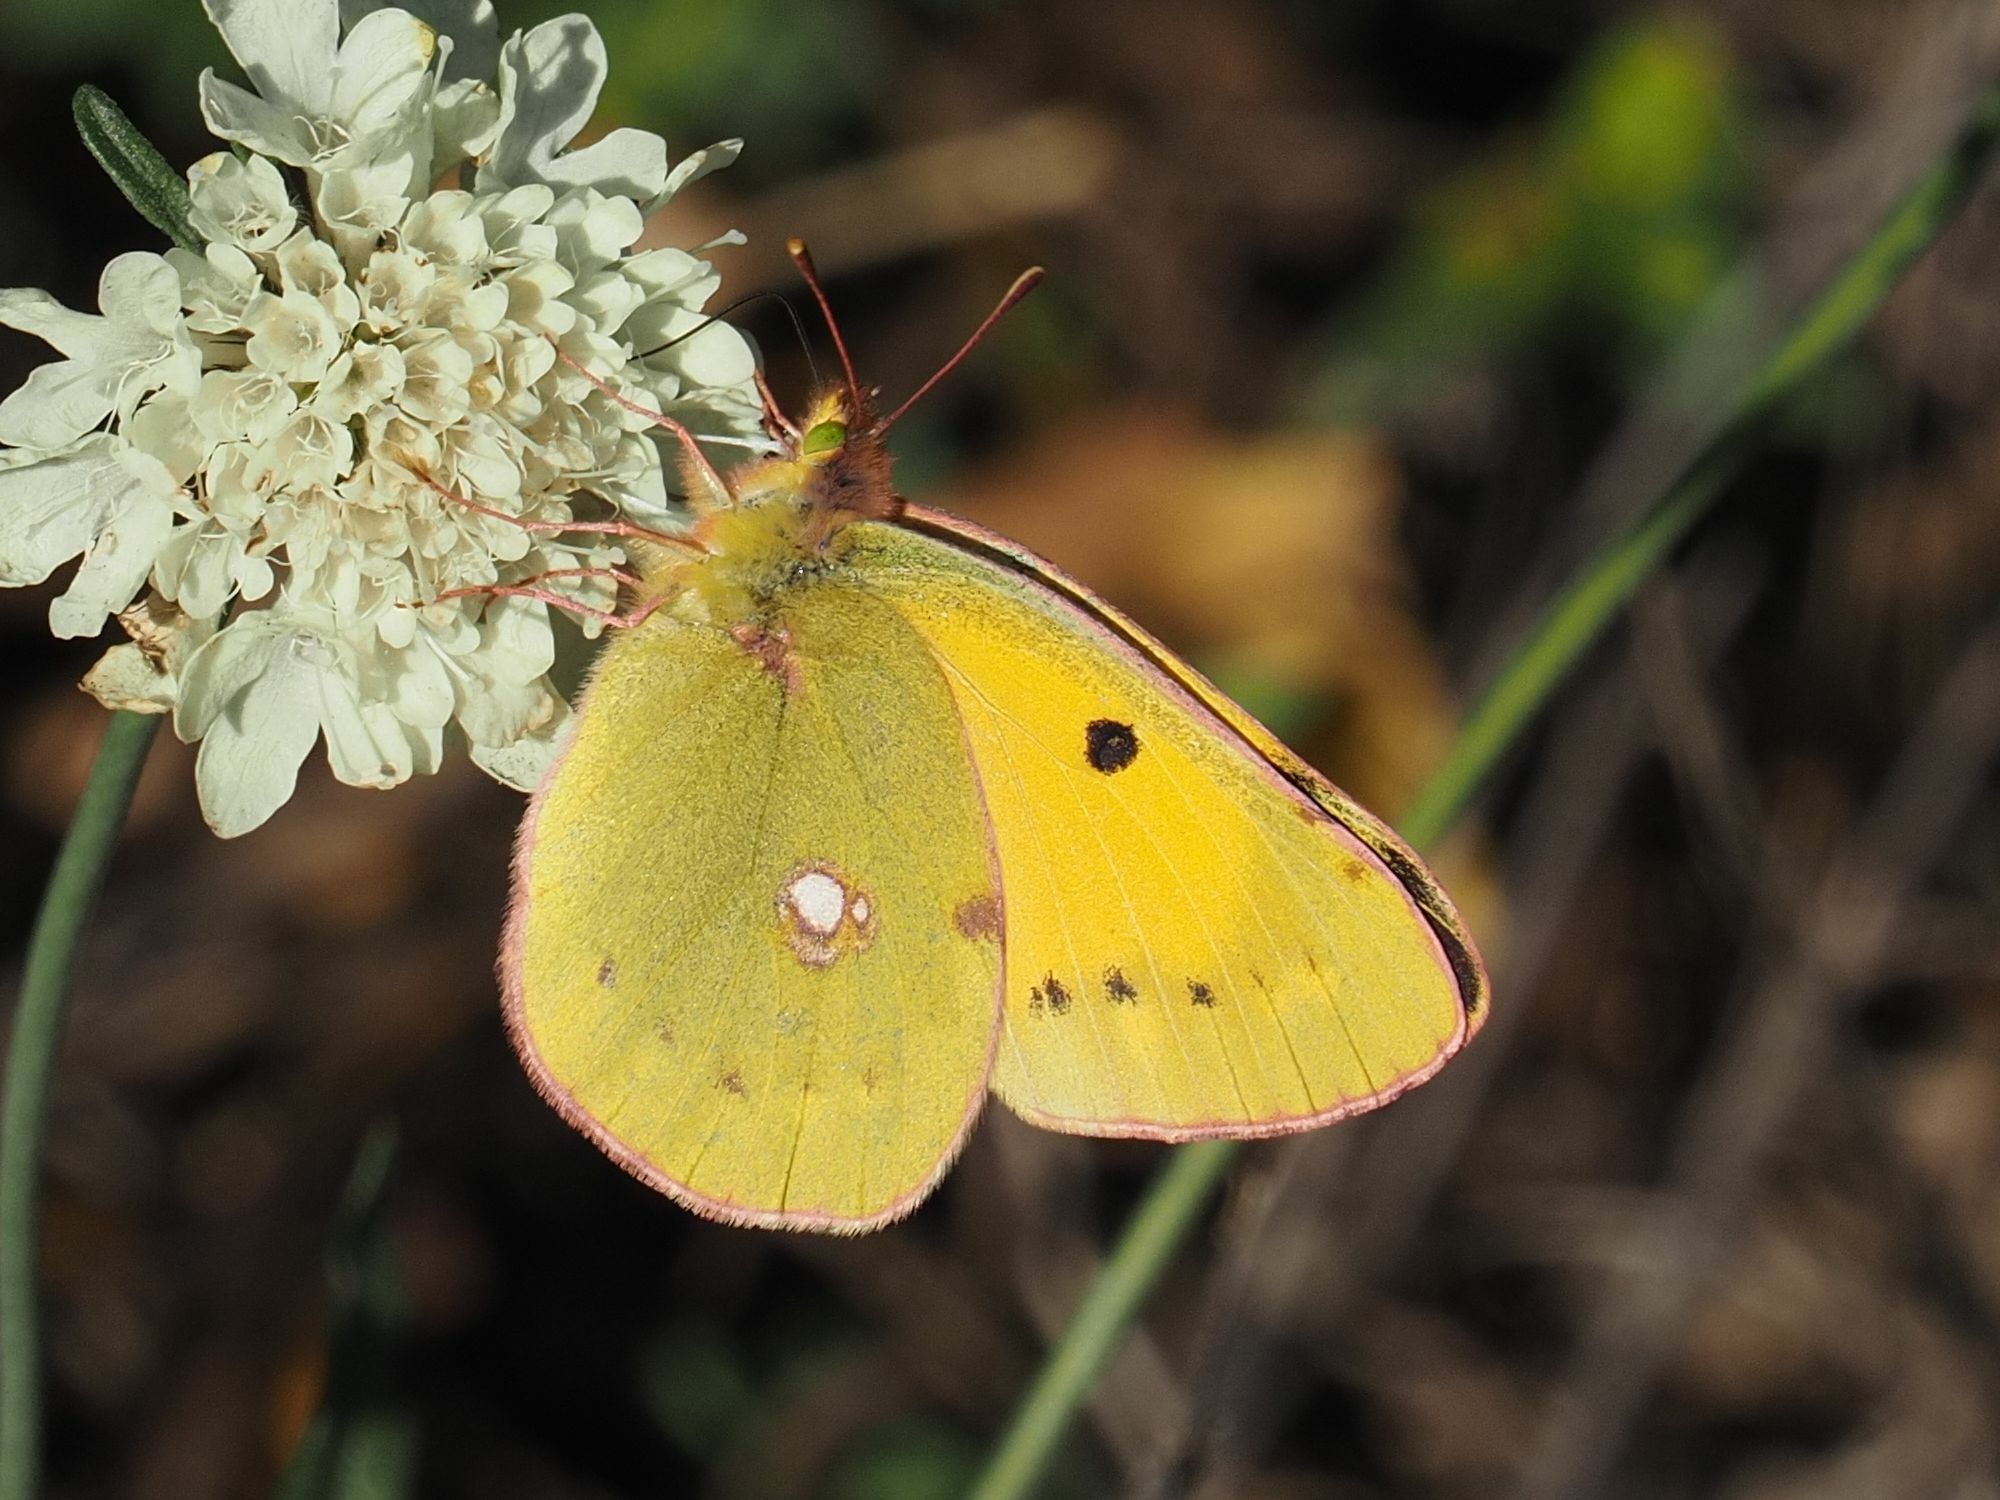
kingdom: Animalia
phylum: Arthropoda
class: Insecta
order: Lepidoptera
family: Pieridae
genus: Colias
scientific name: Colias croceus
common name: Clouded yellow
